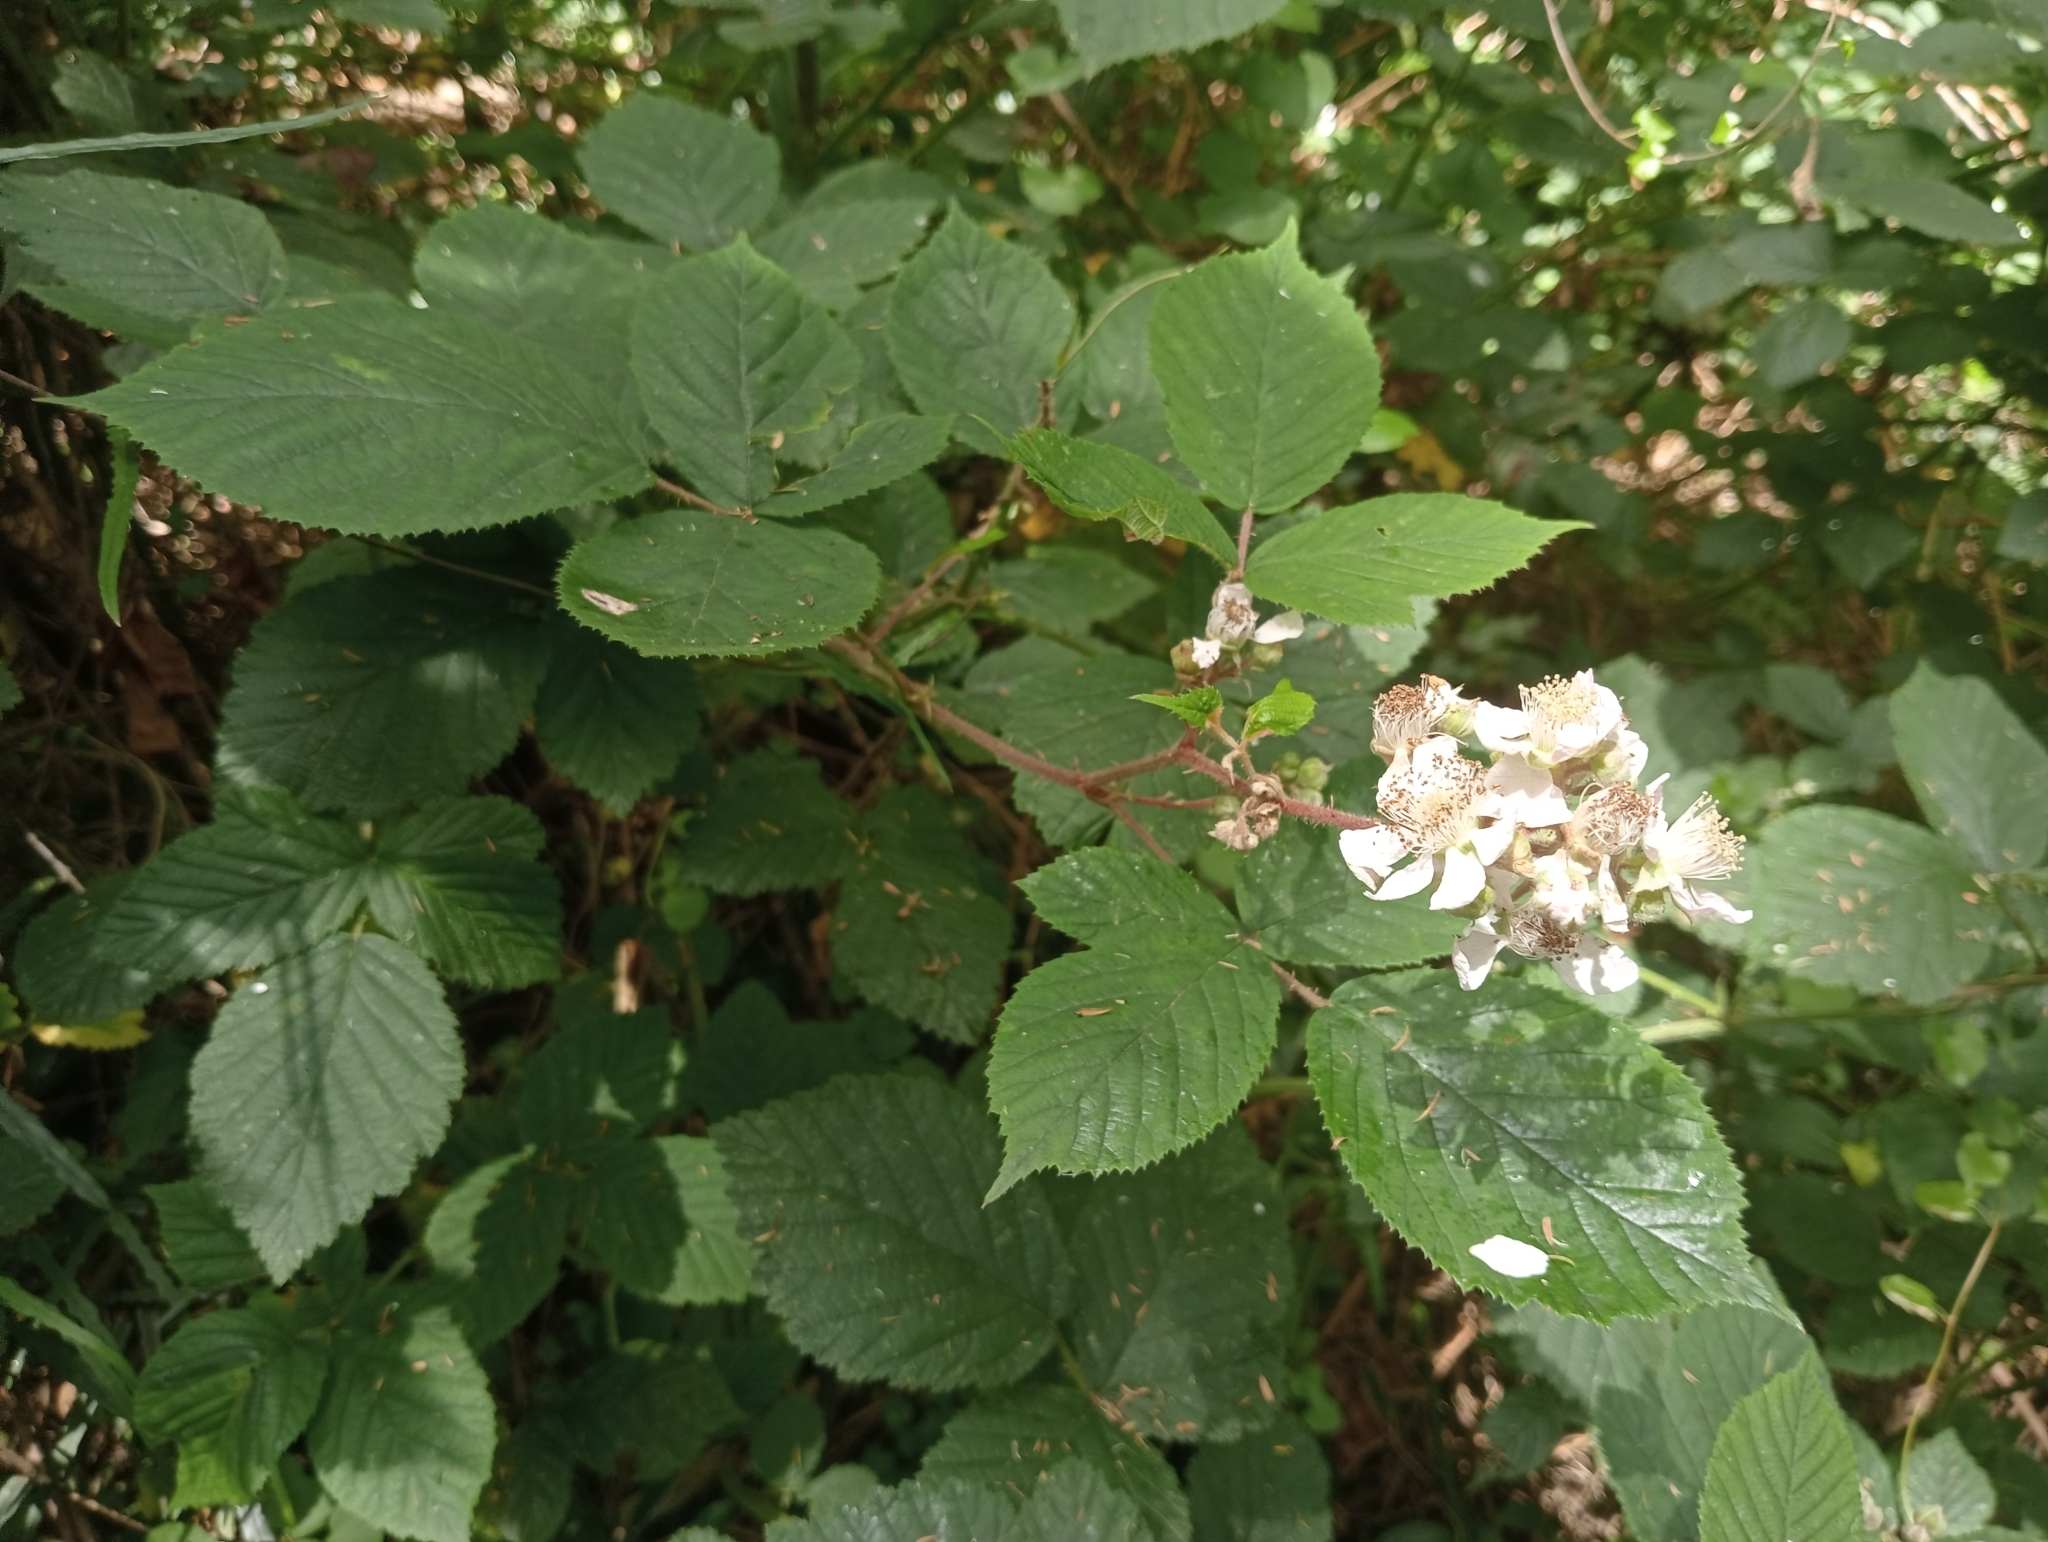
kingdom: Plantae
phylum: Tracheophyta
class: Magnoliopsida
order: Rosales
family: Rosaceae
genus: Rubus
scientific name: Rubus fruticosus
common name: Blackberry, bramble
